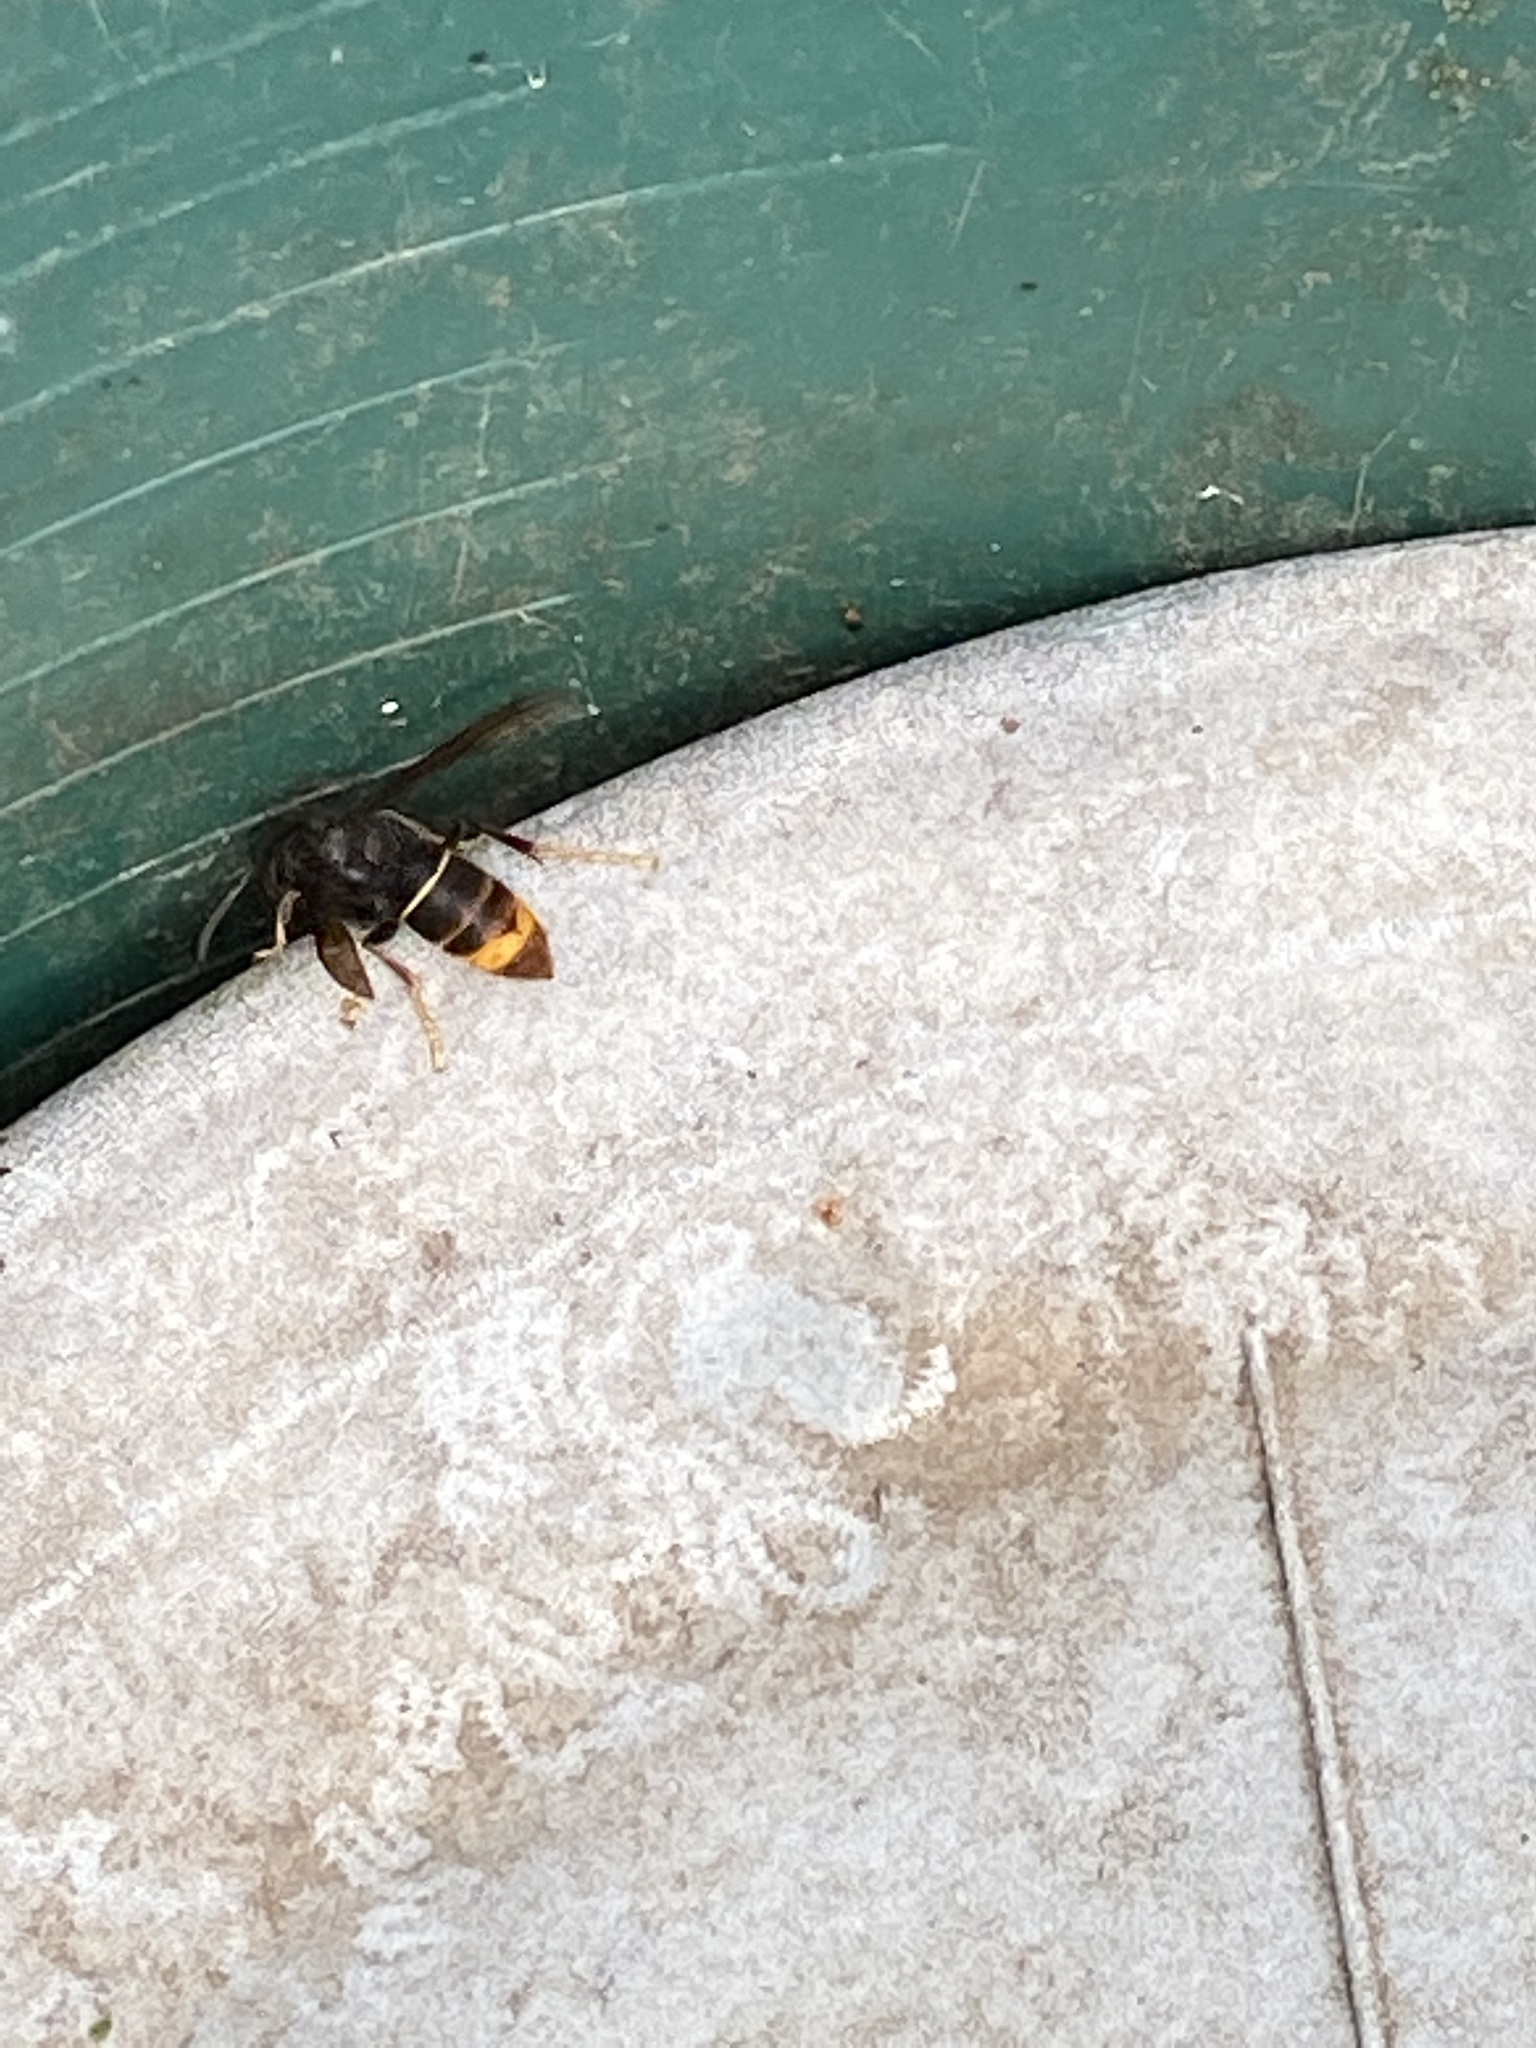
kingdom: Animalia
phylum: Arthropoda
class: Insecta
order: Hymenoptera
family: Vespidae
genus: Vespa
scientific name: Vespa velutina
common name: Asian hornet
